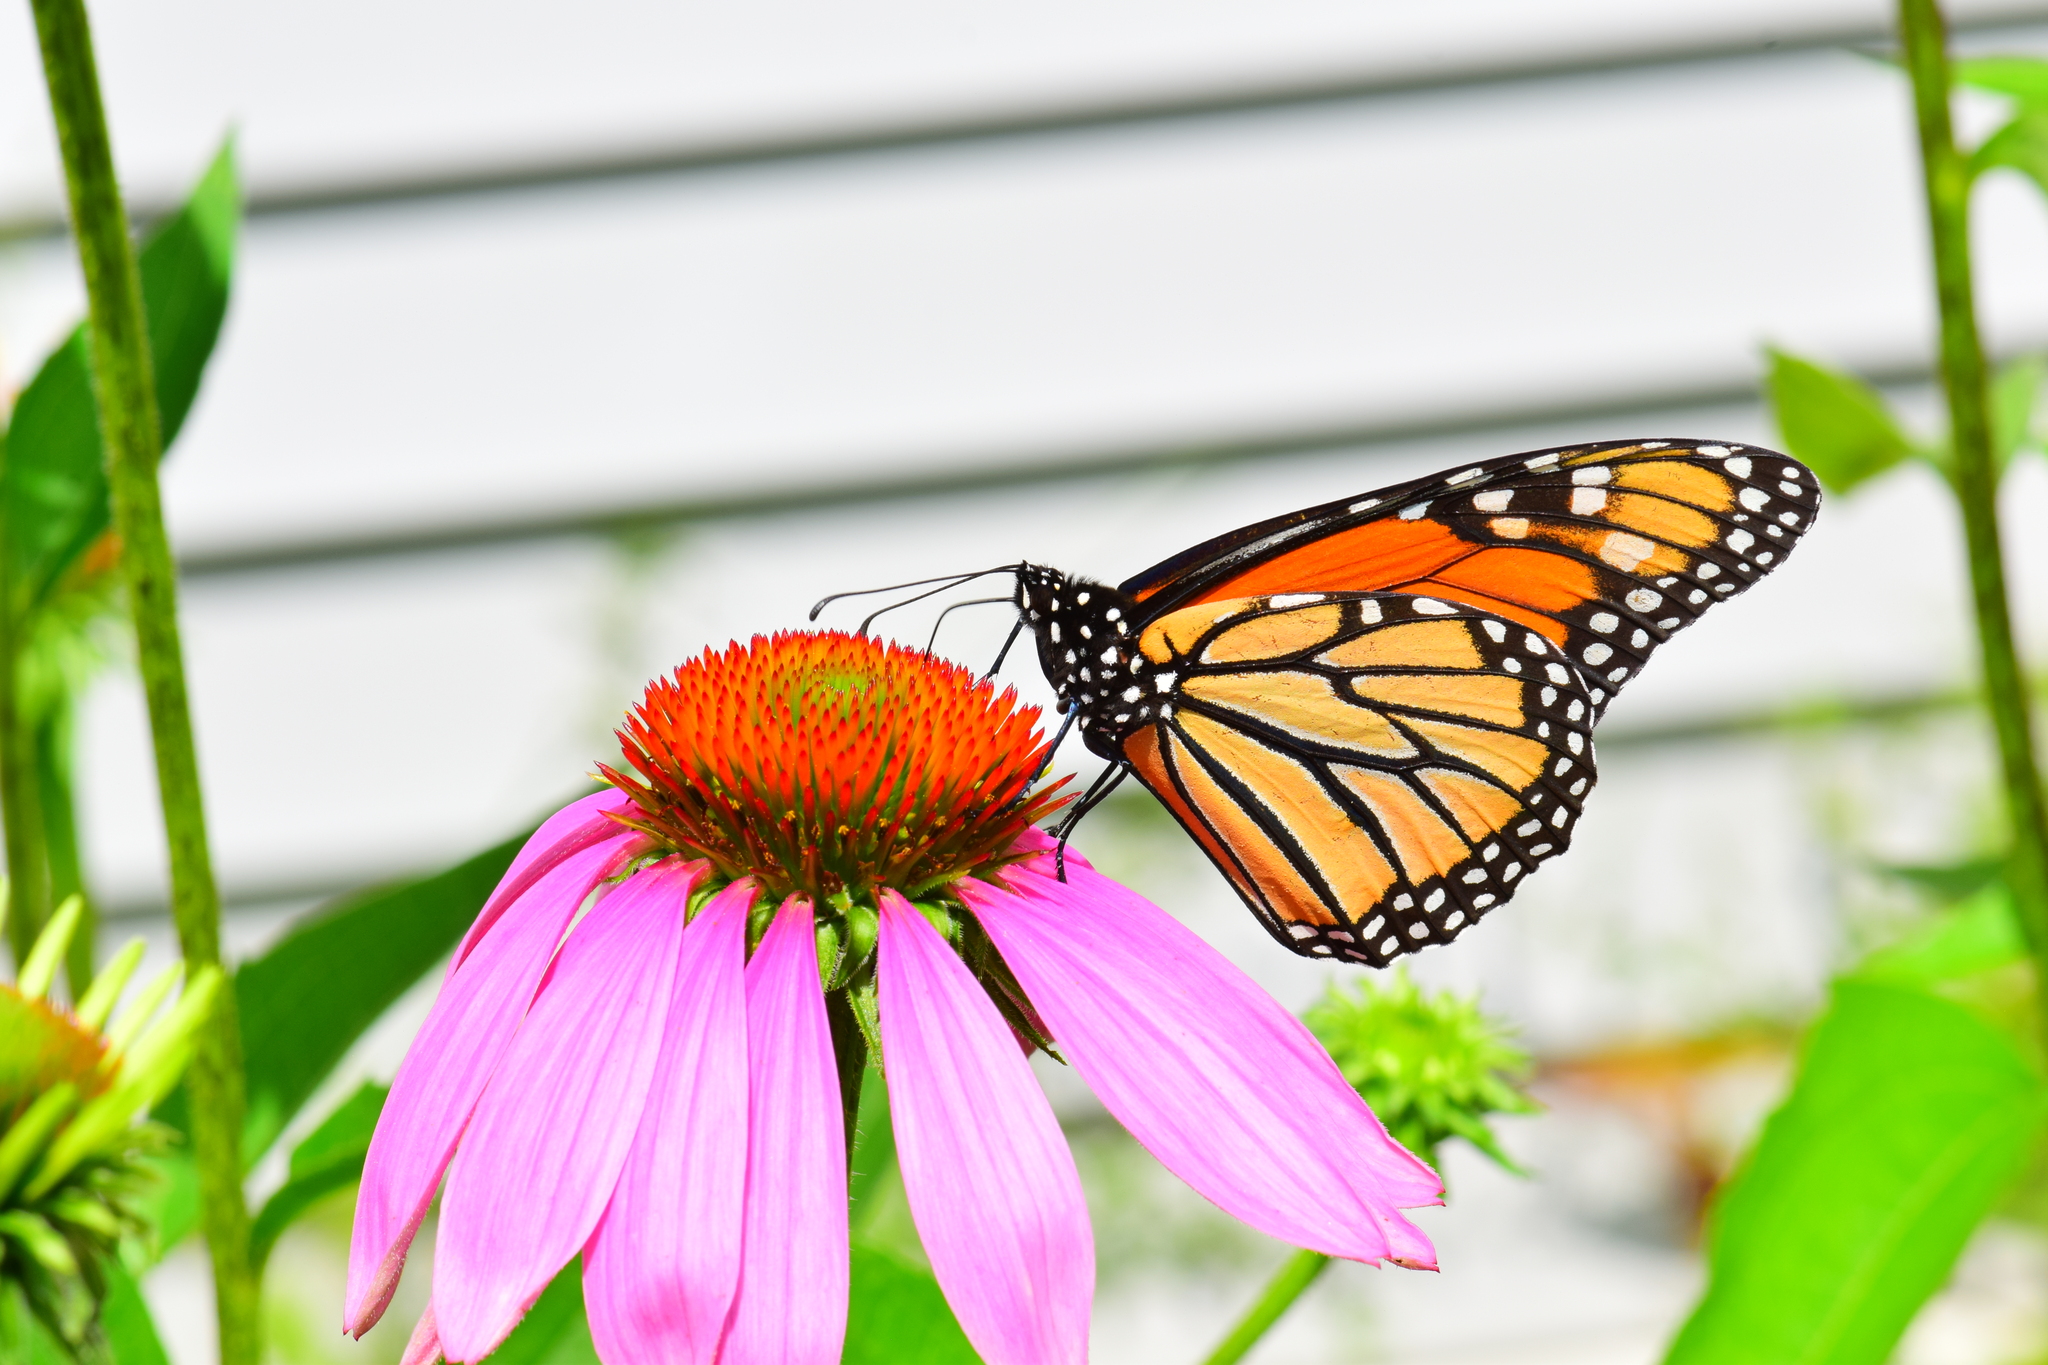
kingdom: Animalia
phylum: Arthropoda
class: Insecta
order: Lepidoptera
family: Nymphalidae
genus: Danaus
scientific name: Danaus plexippus
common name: Monarch
